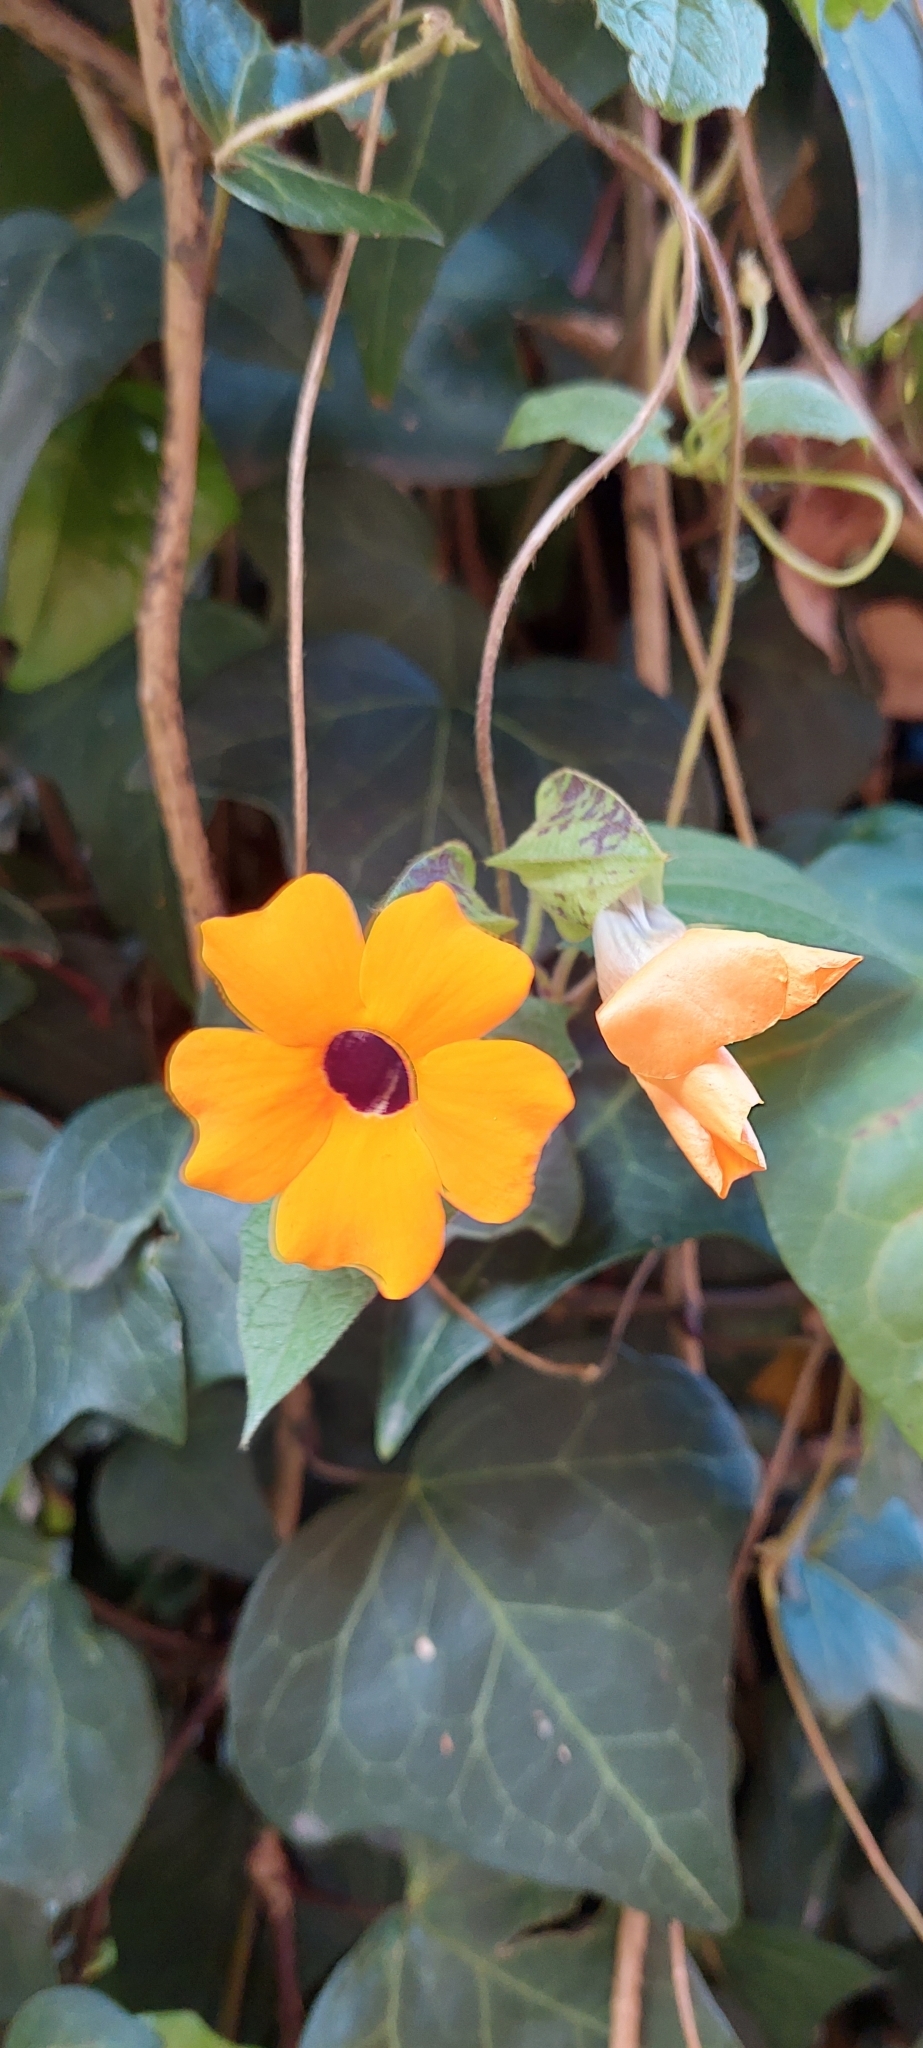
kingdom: Plantae
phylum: Tracheophyta
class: Magnoliopsida
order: Lamiales
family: Acanthaceae
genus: Thunbergia
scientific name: Thunbergia alata
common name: Blackeyed susan vine
